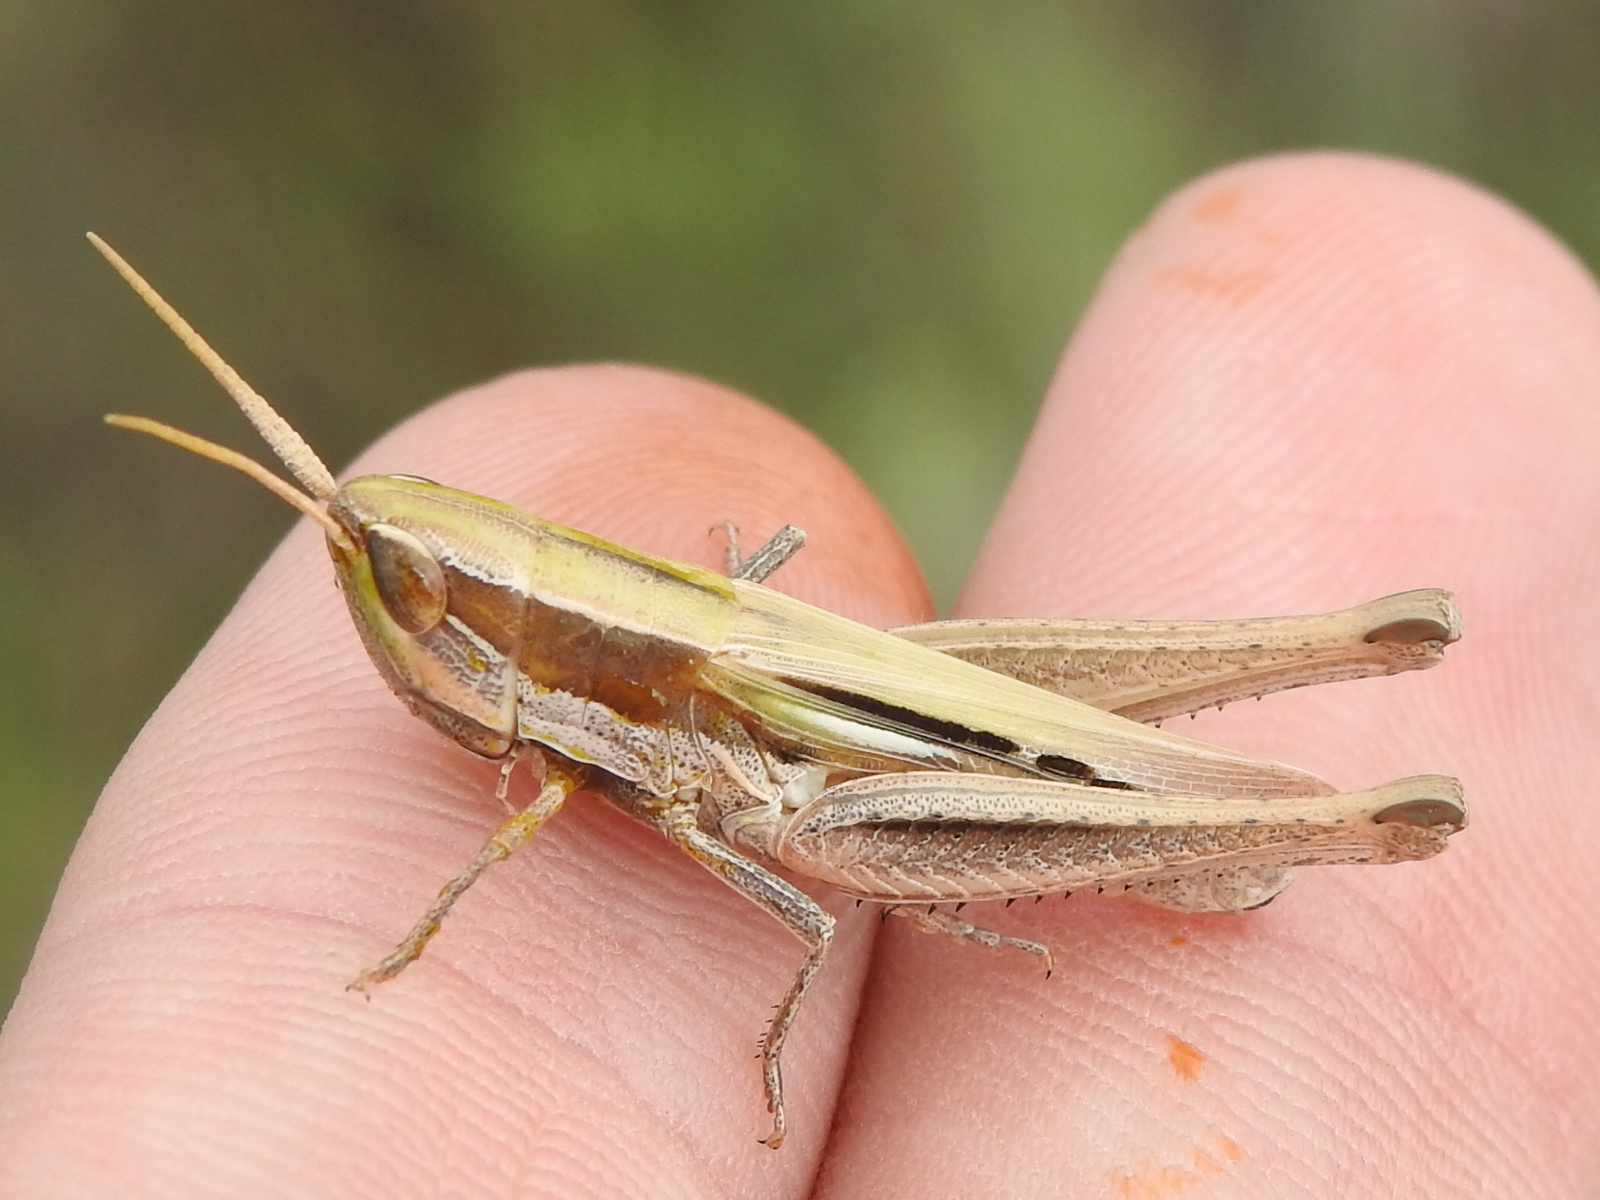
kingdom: Animalia
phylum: Arthropoda
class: Insecta
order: Orthoptera
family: Acrididae
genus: Opeia
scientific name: Opeia obscura
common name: Obscure grasshopper
